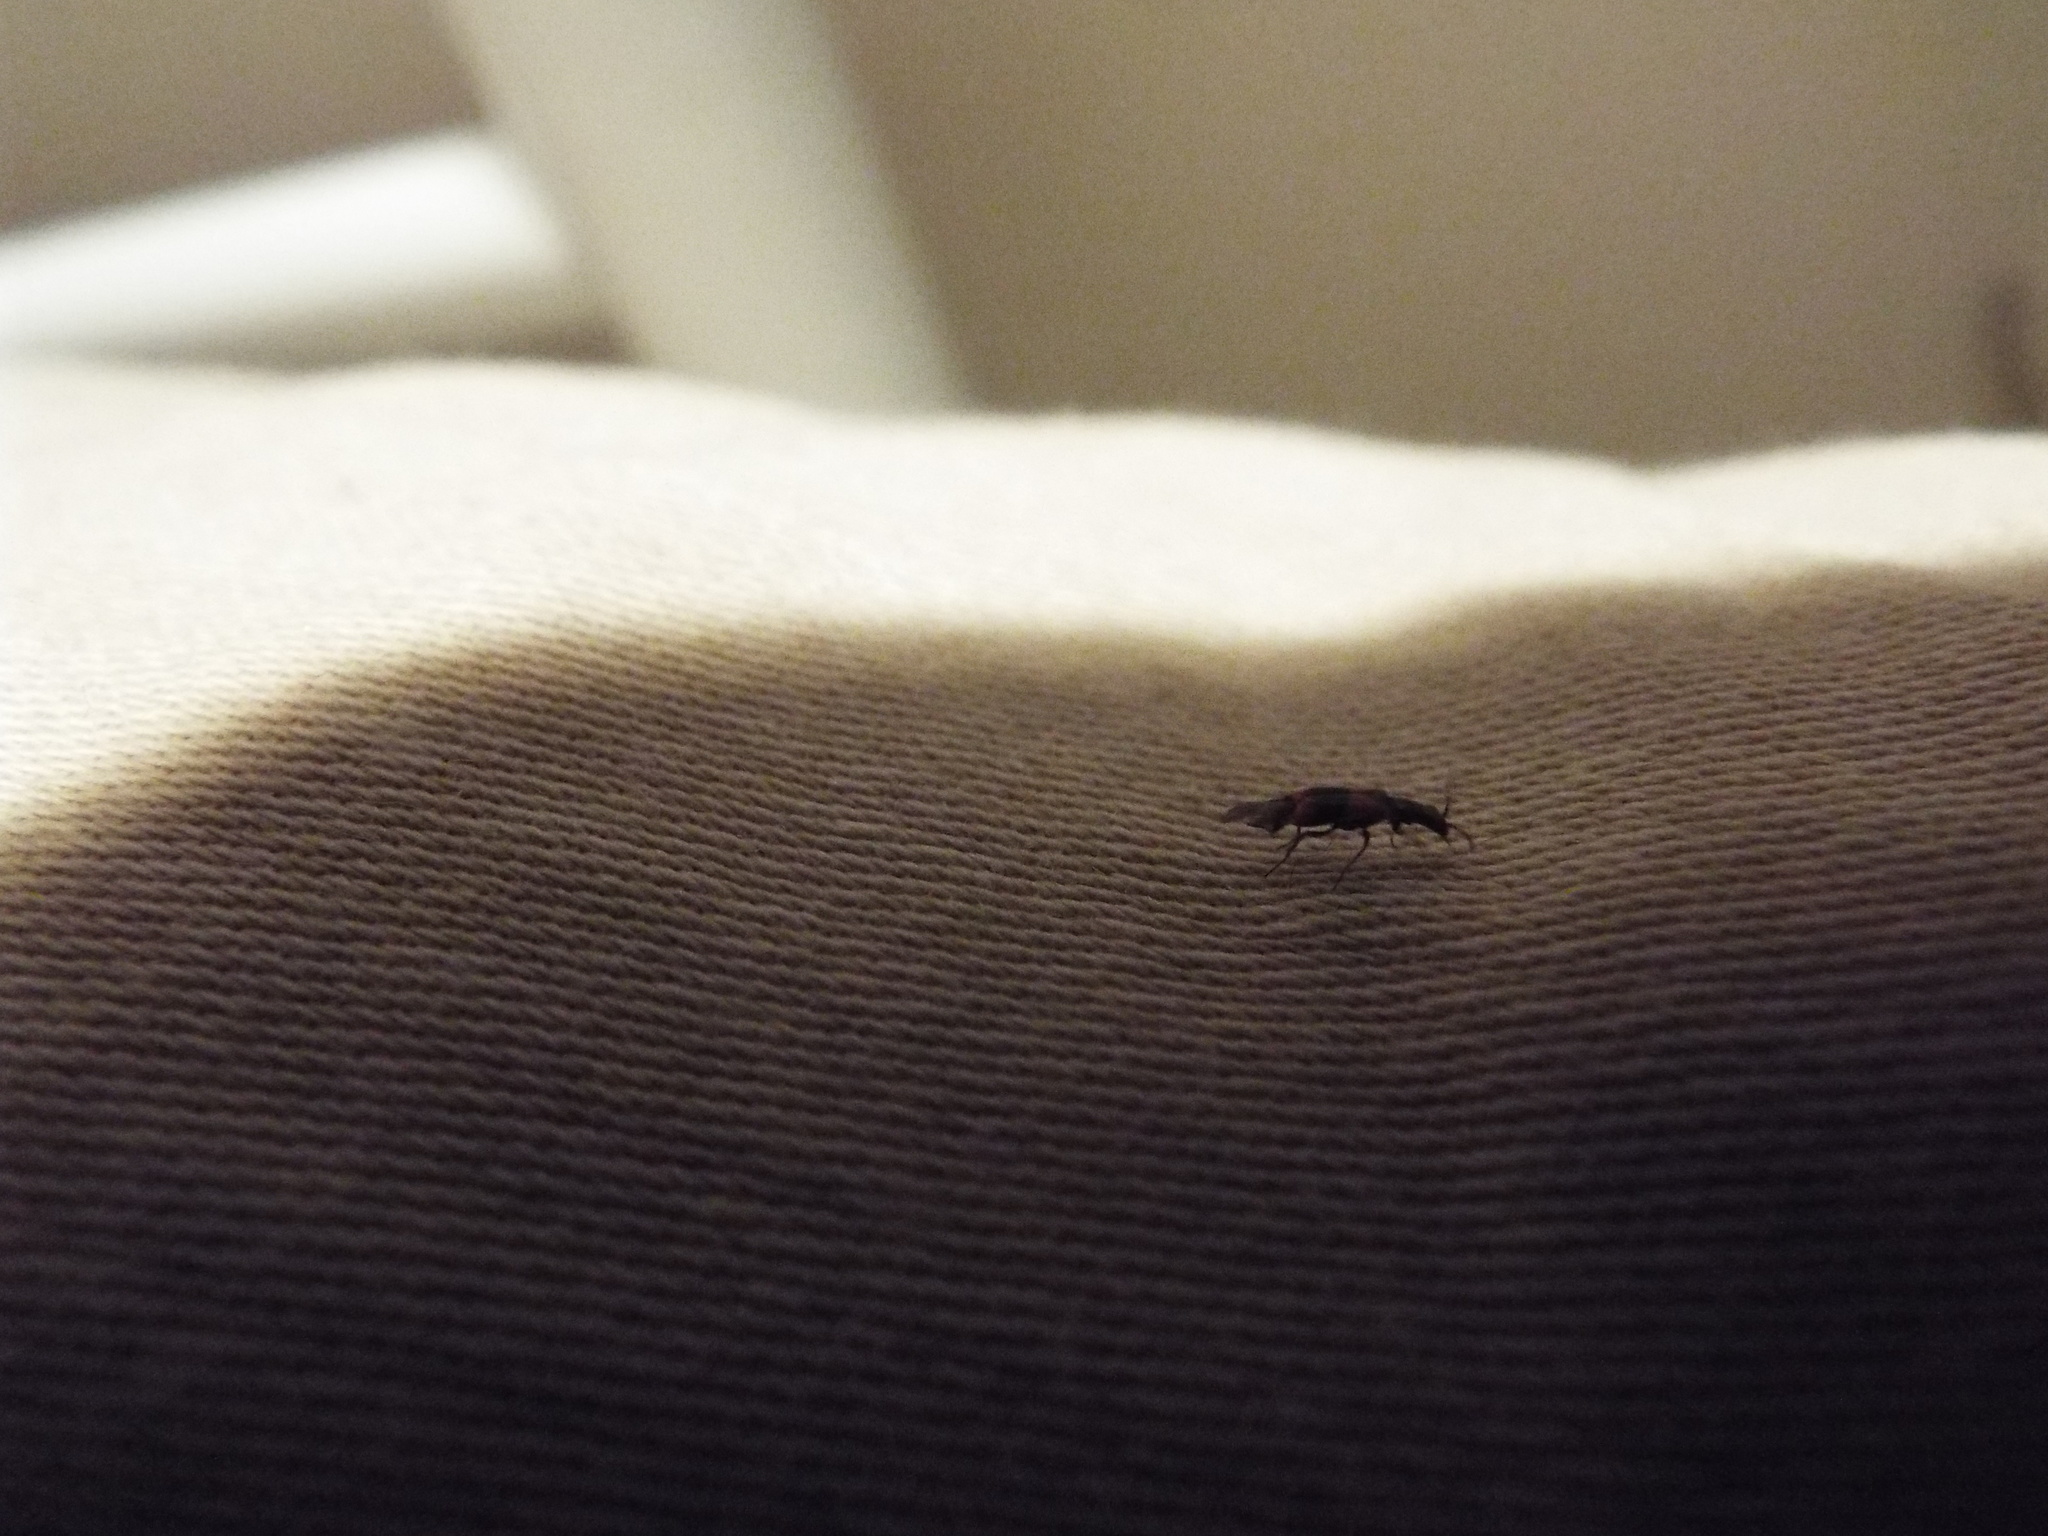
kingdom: Animalia
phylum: Arthropoda
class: Insecta
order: Coleoptera
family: Melyridae
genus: Anthocomus
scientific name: Anthocomus equestris
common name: Black-banded soft-winged flower beetle
